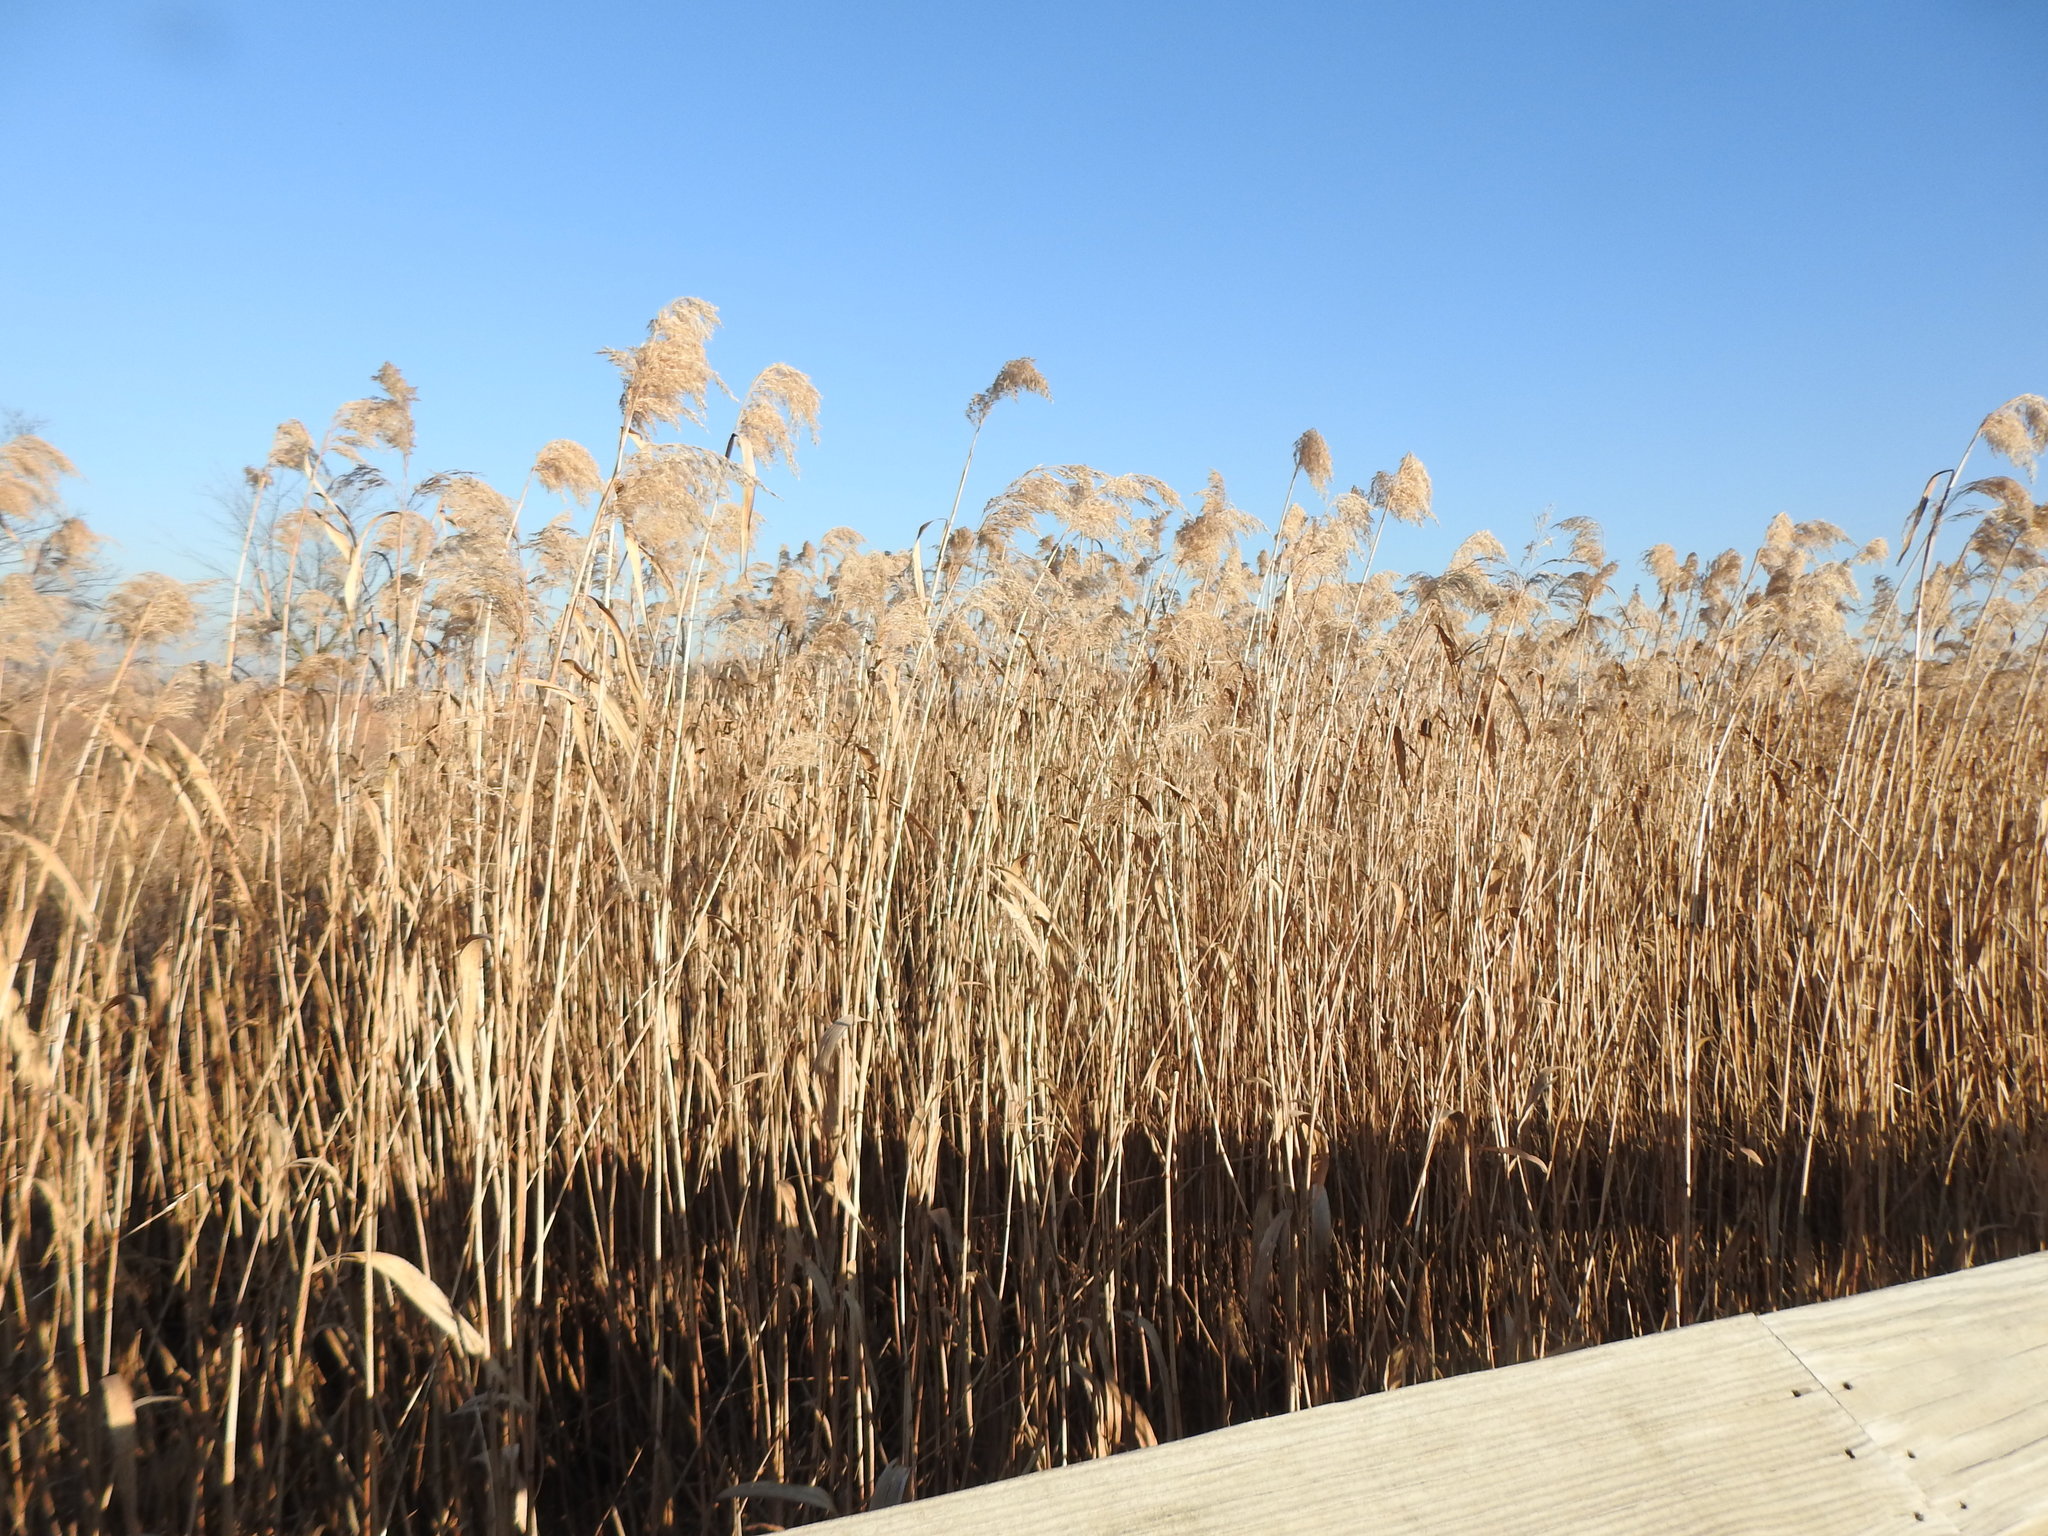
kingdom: Plantae
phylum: Tracheophyta
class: Liliopsida
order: Poales
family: Poaceae
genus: Phragmites
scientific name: Phragmites australis
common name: Common reed
